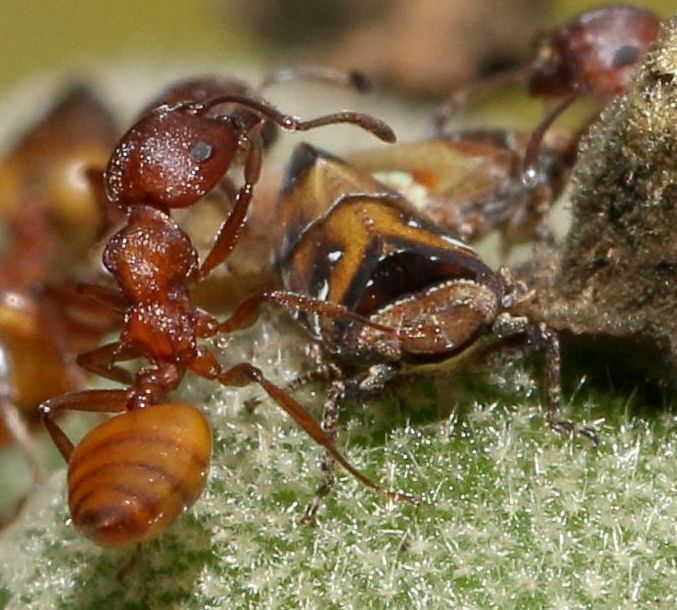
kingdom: Animalia
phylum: Arthropoda
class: Insecta
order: Hymenoptera
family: Formicidae
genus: Crematogaster
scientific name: Crematogaster castanea
